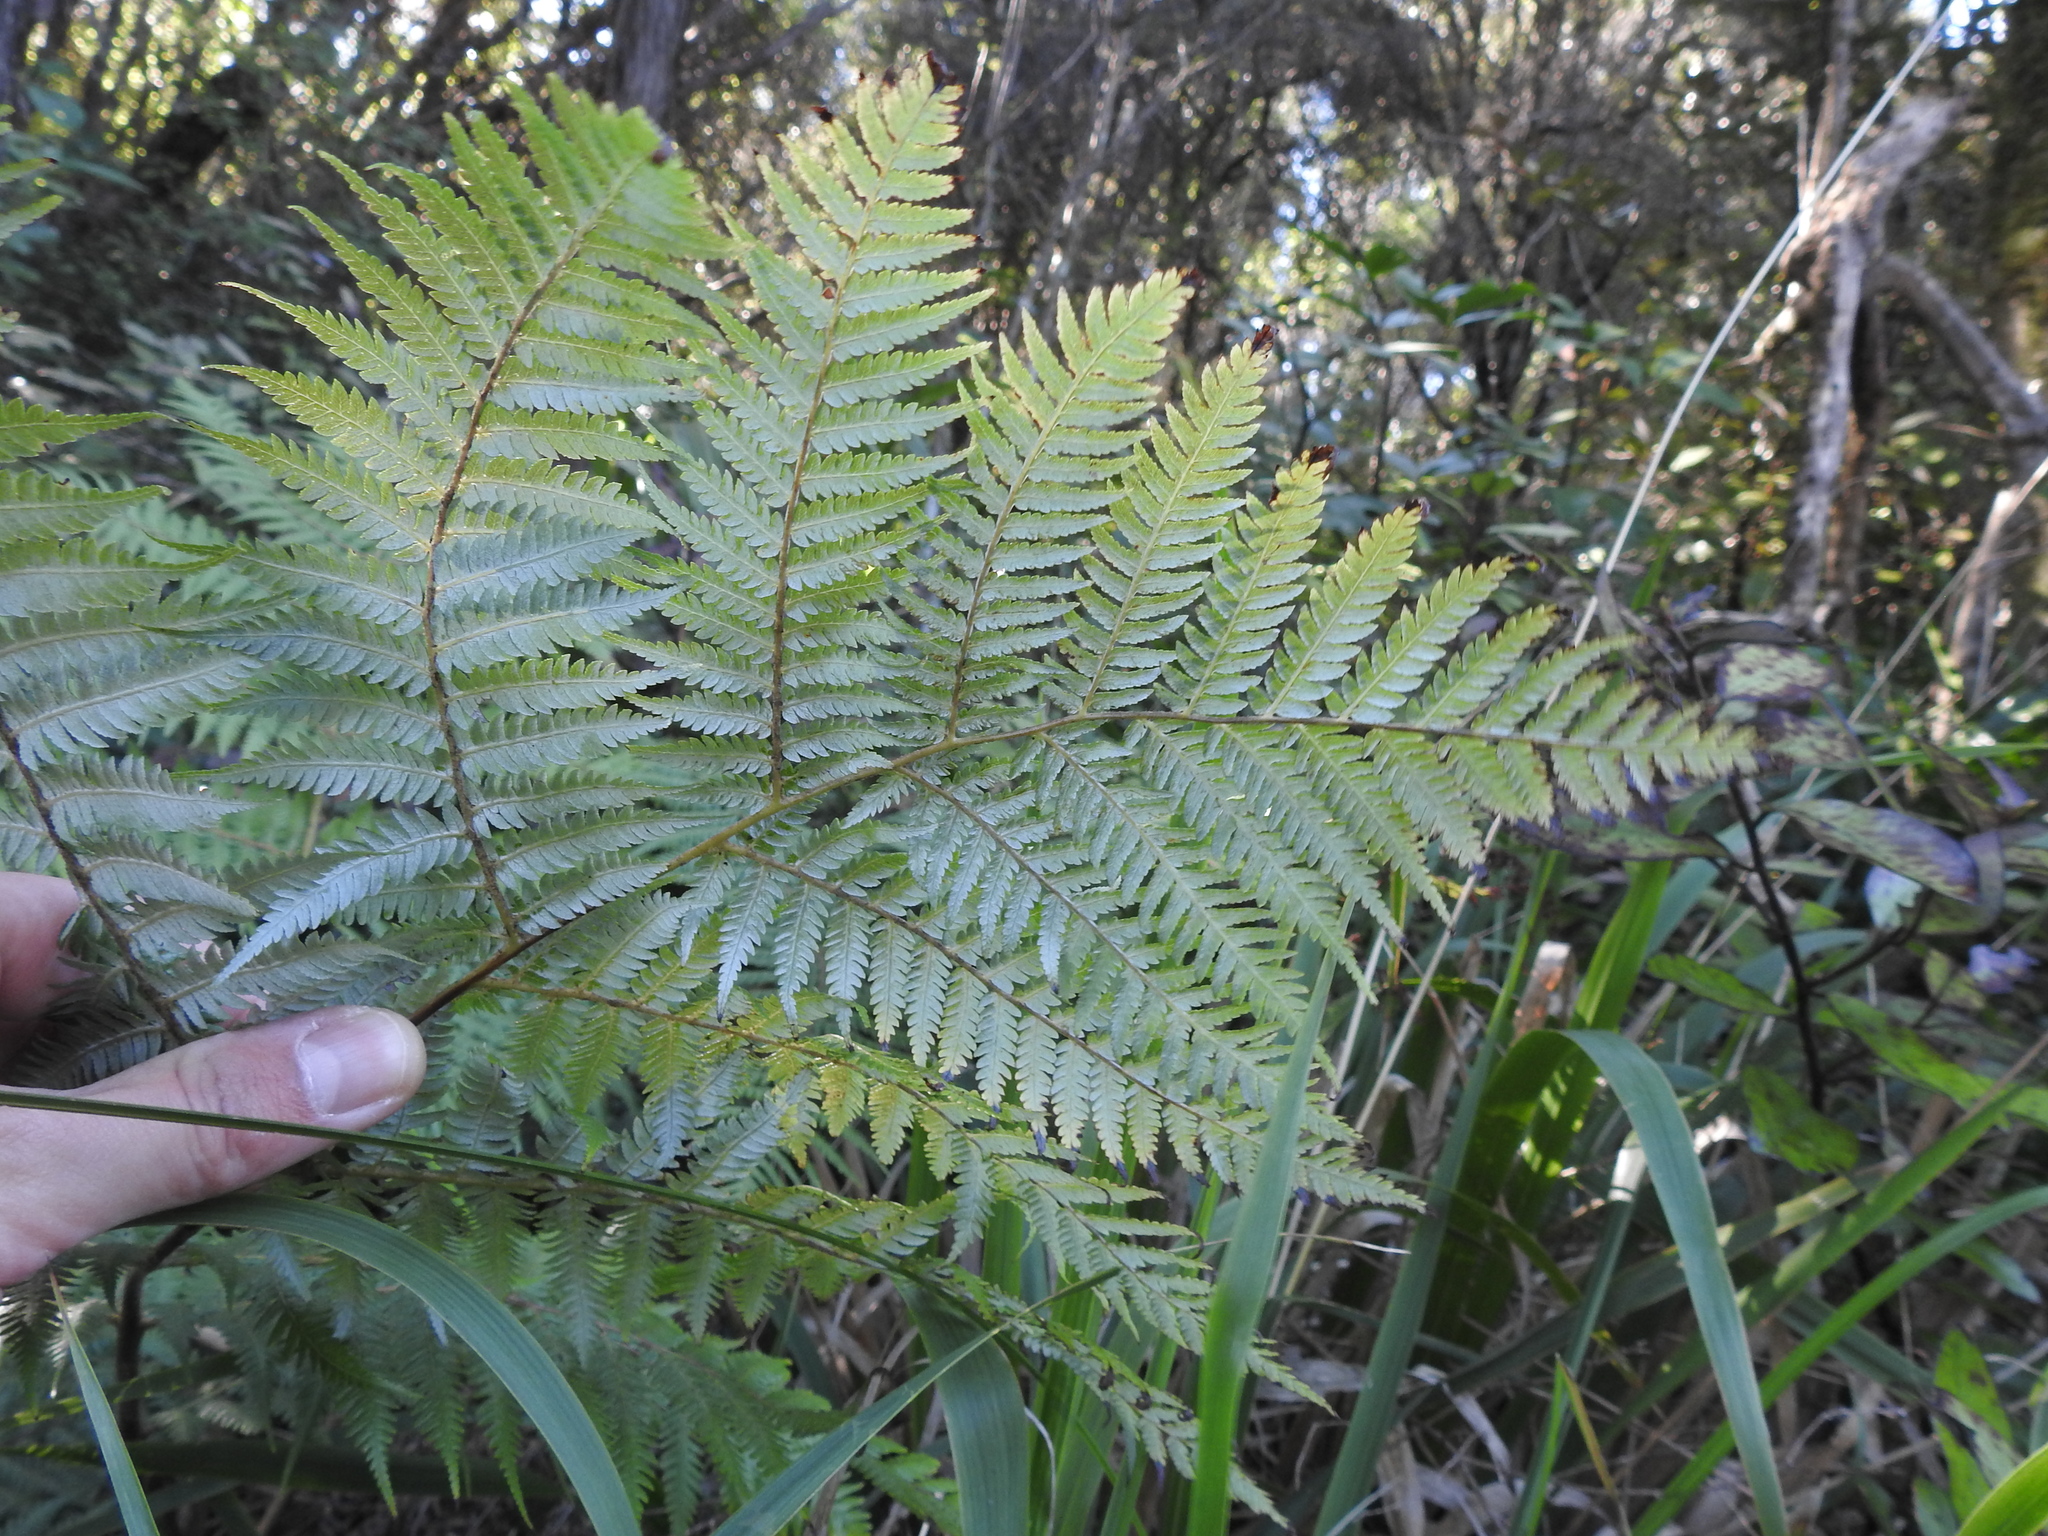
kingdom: Plantae
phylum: Tracheophyta
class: Polypodiopsida
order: Cyatheales
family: Cyatheaceae
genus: Alsophila
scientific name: Alsophila dealbata
